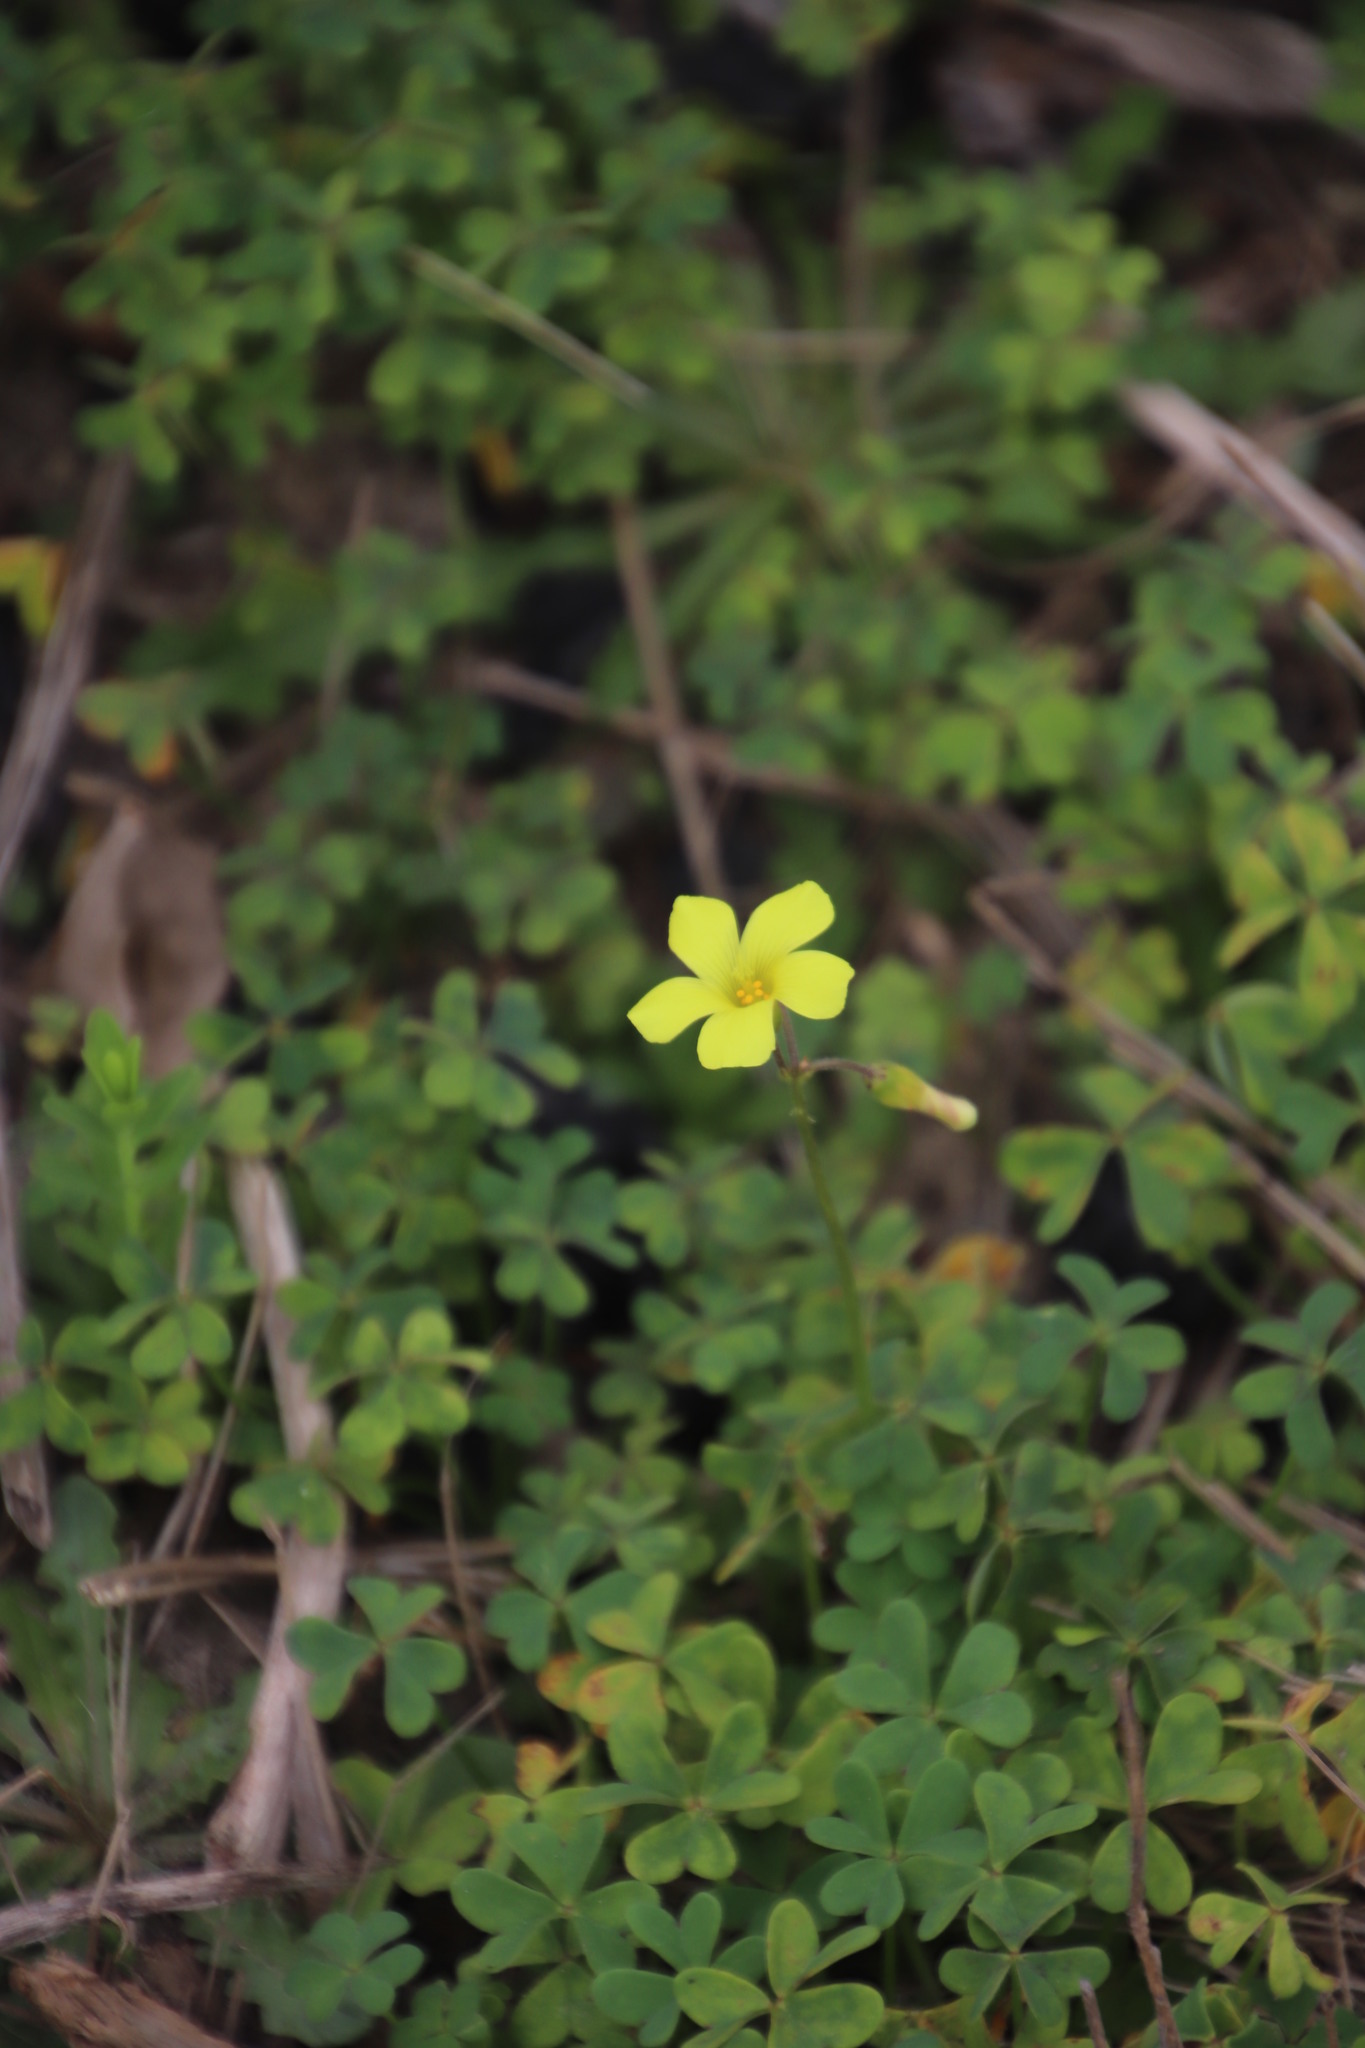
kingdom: Plantae
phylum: Tracheophyta
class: Magnoliopsida
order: Oxalidales
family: Oxalidaceae
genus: Oxalis
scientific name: Oxalis pes-caprae
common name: Bermuda-buttercup
